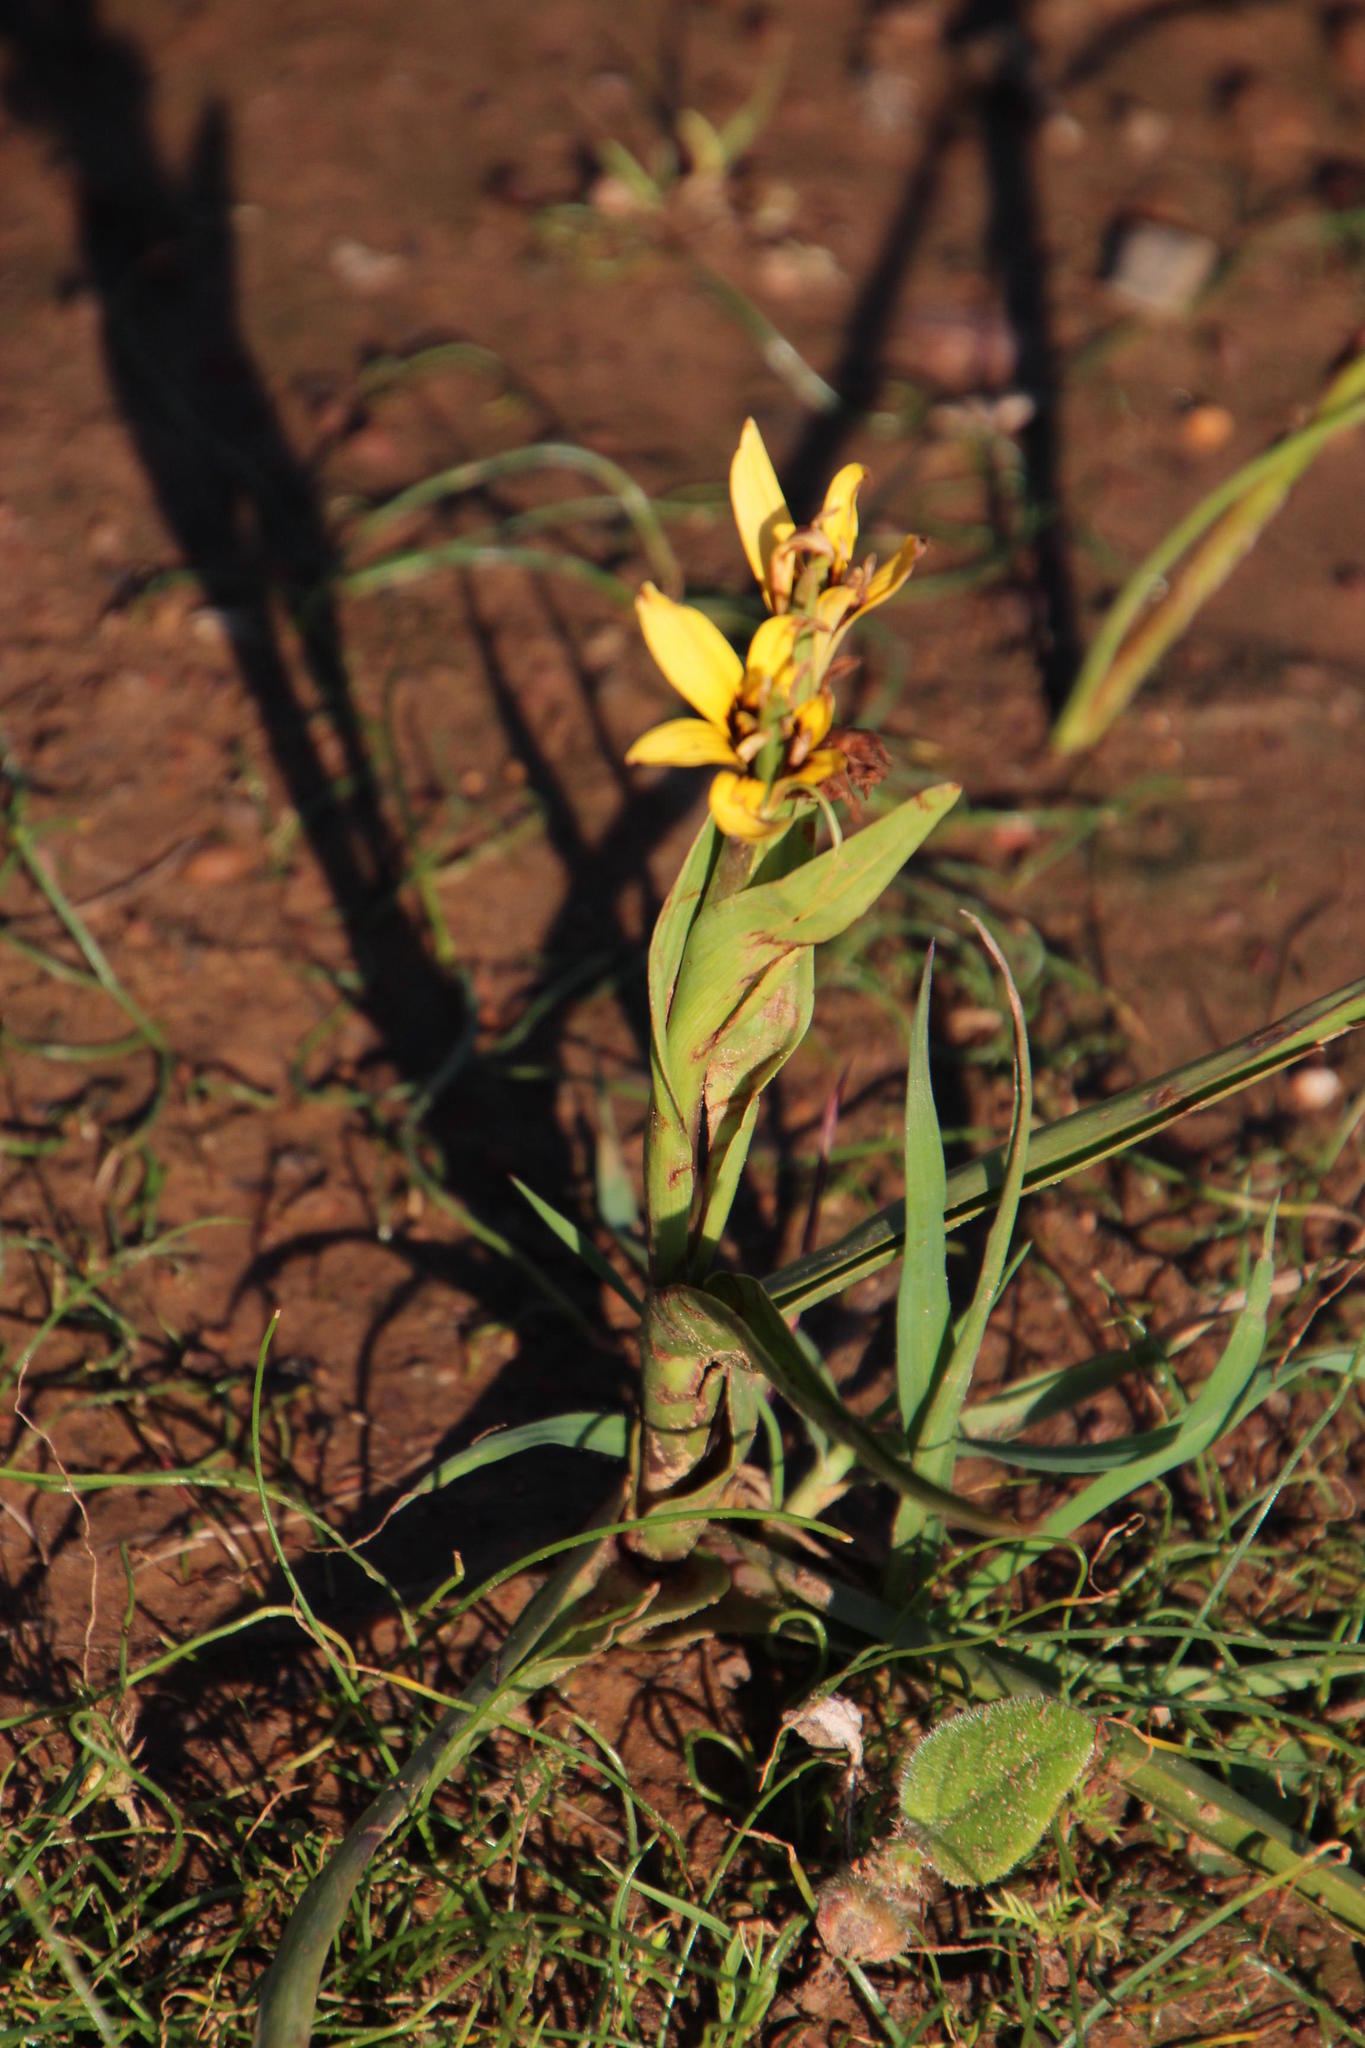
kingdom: Plantae
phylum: Tracheophyta
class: Liliopsida
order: Liliales
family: Colchicaceae
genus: Baeometra
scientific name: Baeometra uniflora
